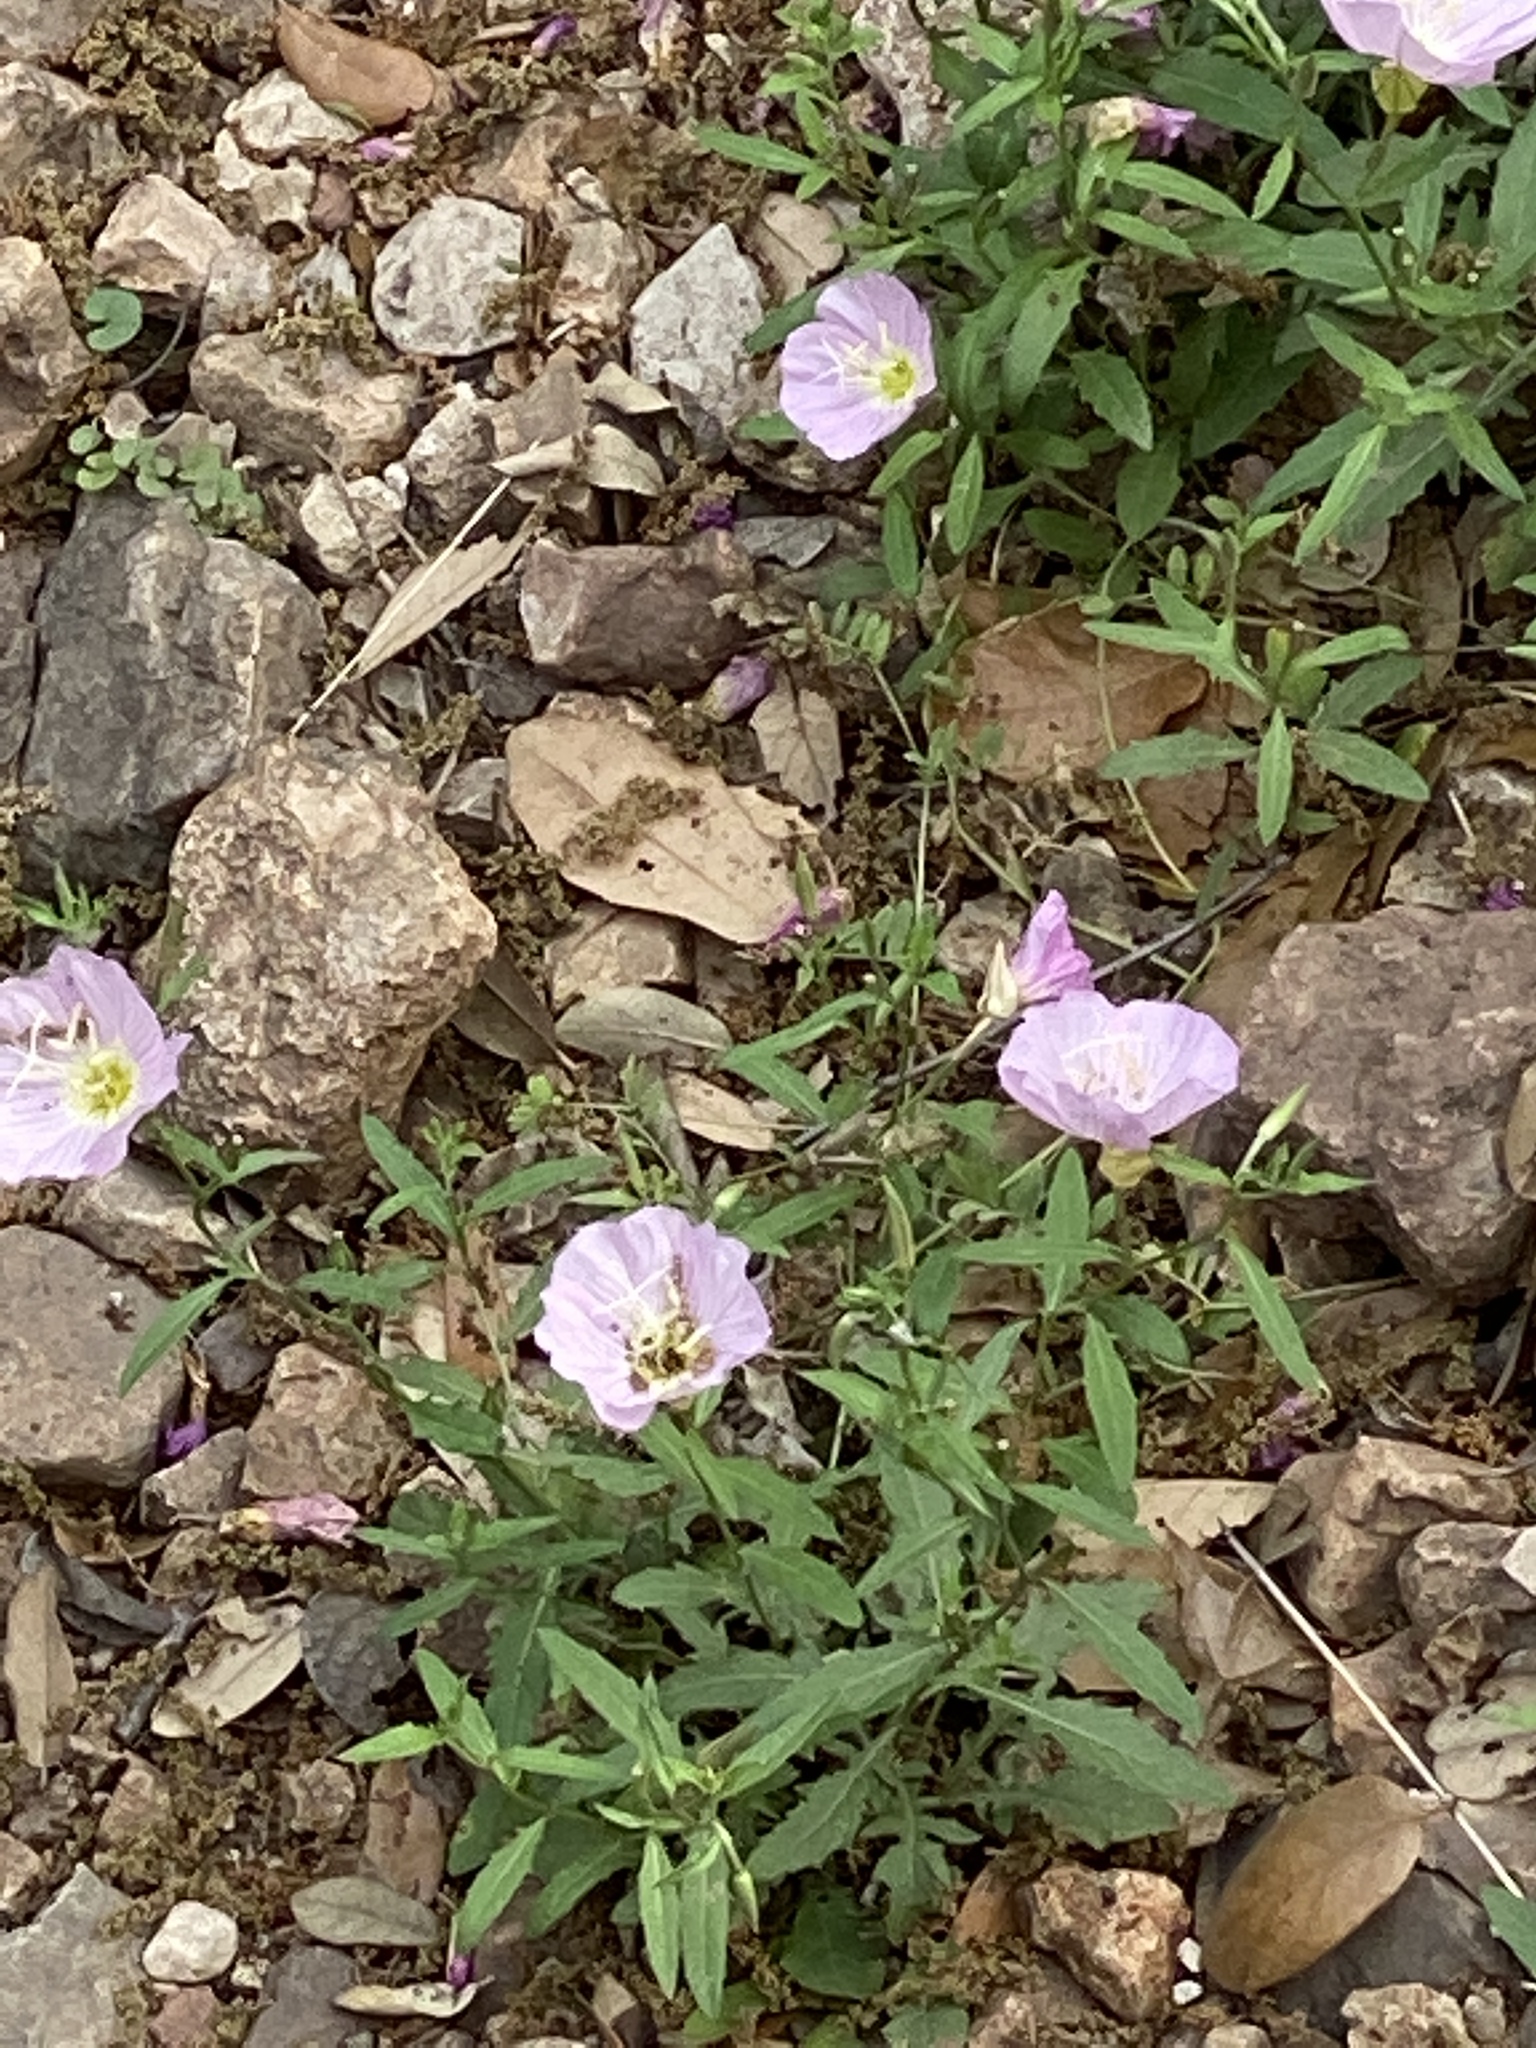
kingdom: Plantae
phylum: Tracheophyta
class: Magnoliopsida
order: Myrtales
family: Onagraceae
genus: Oenothera
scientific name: Oenothera speciosa
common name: White evening-primrose
